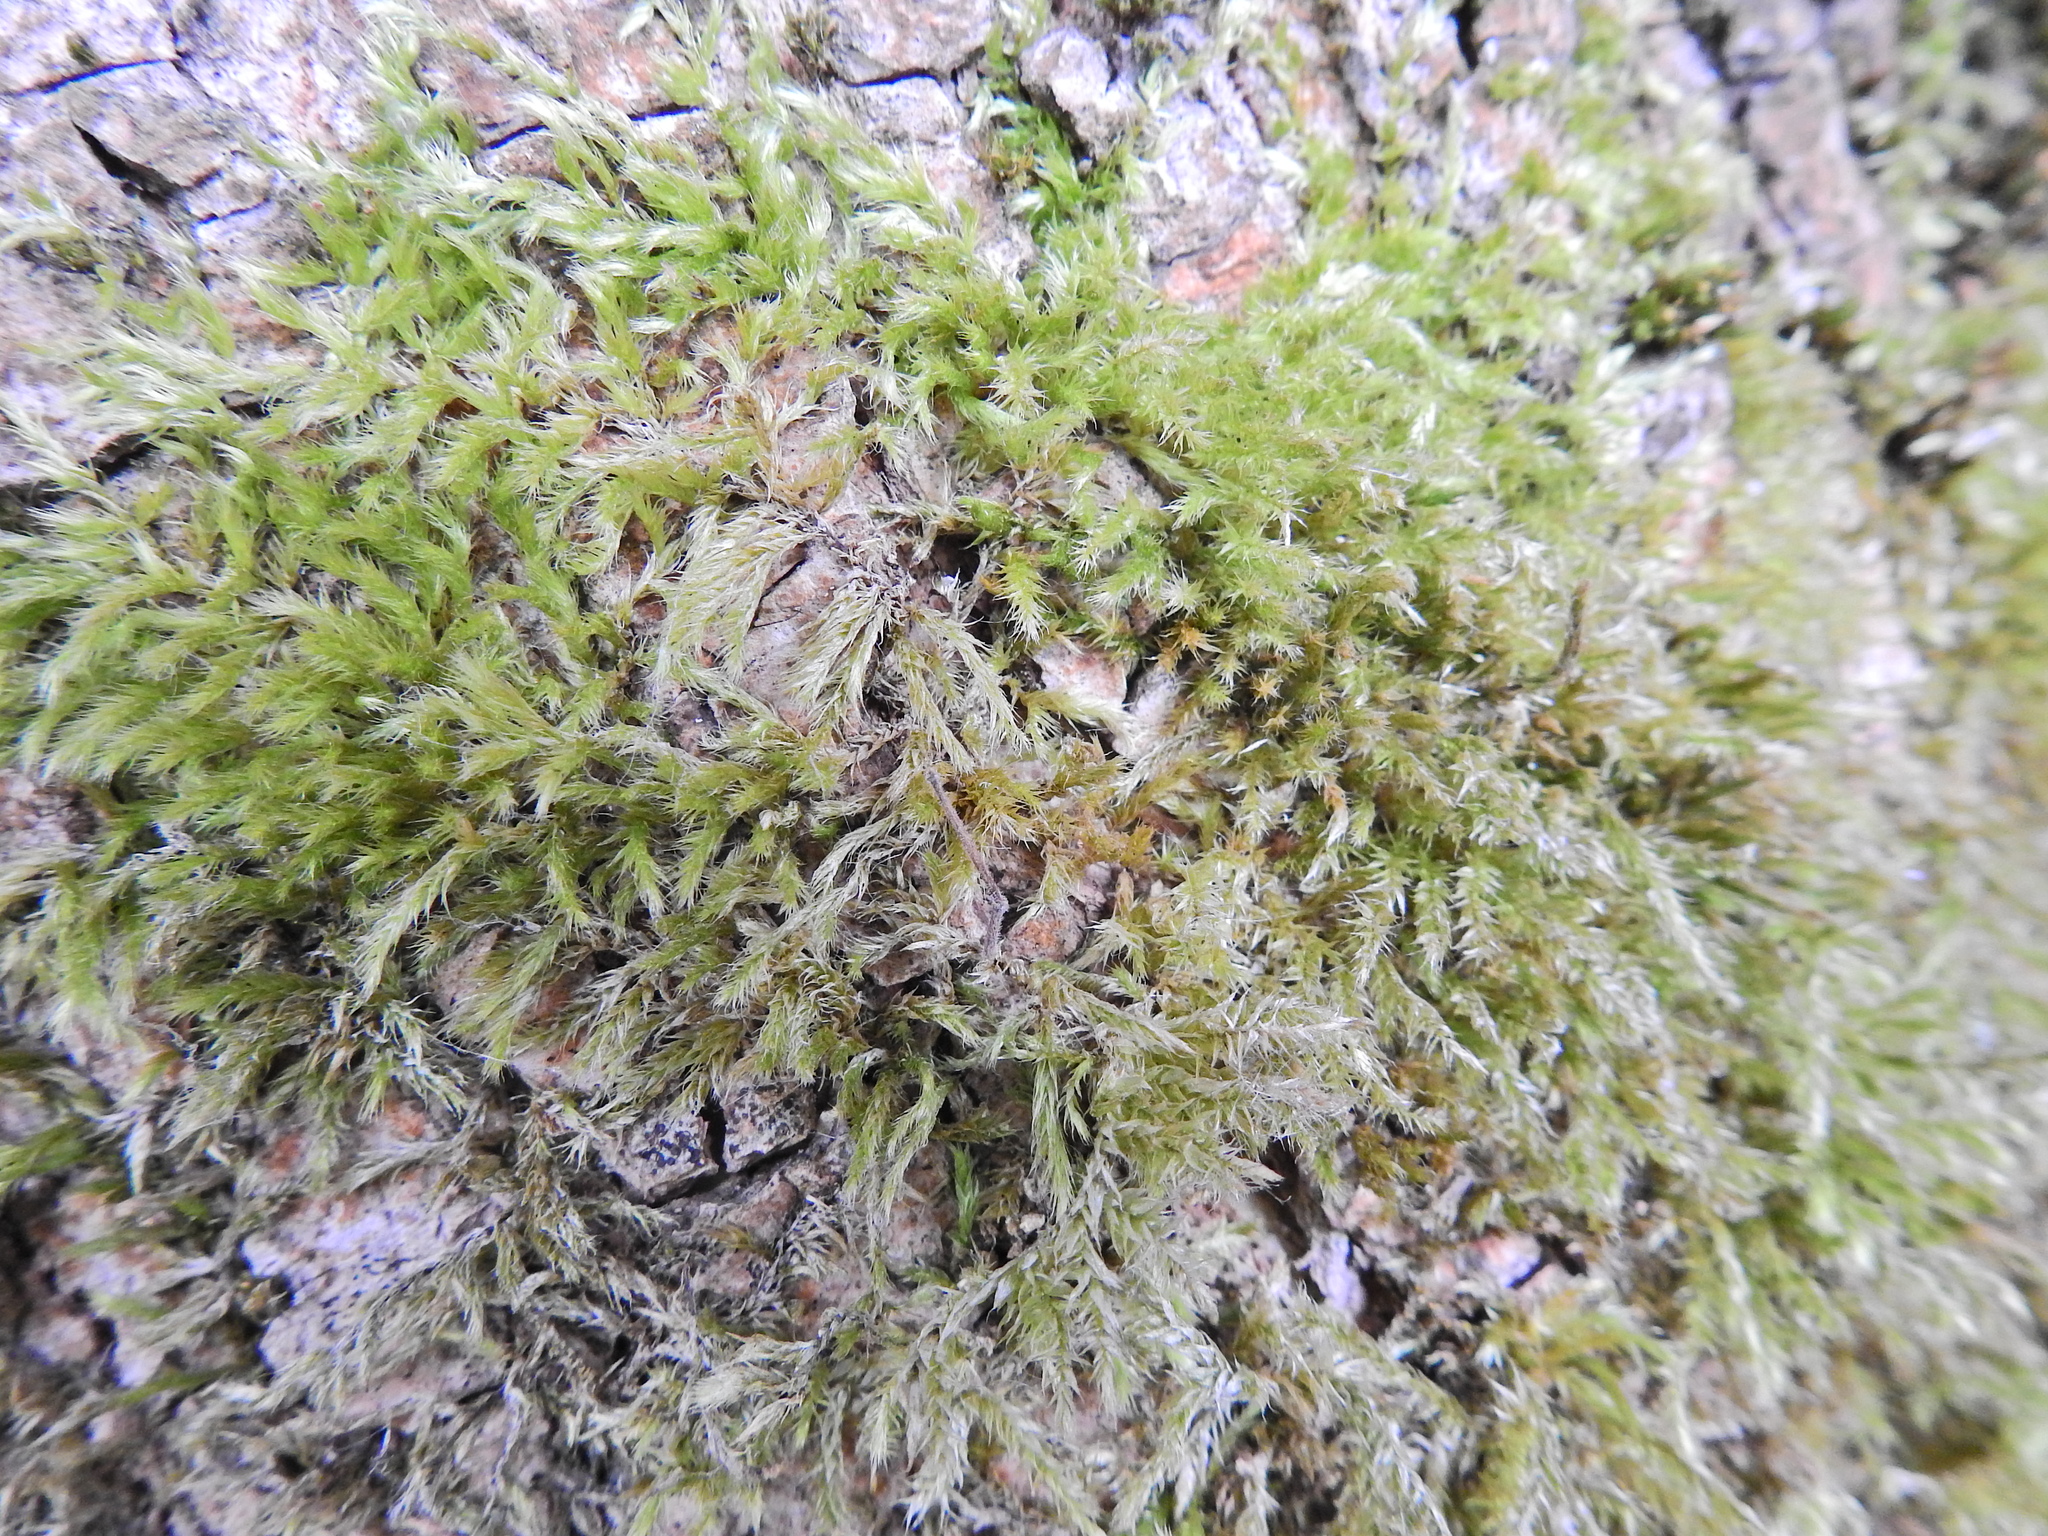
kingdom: Plantae
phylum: Bryophyta
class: Bryopsida
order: Hypnales
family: Brachytheciaceae
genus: Brachythecium
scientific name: Brachythecium rutabulum
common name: Rough-stalked feather-moss
